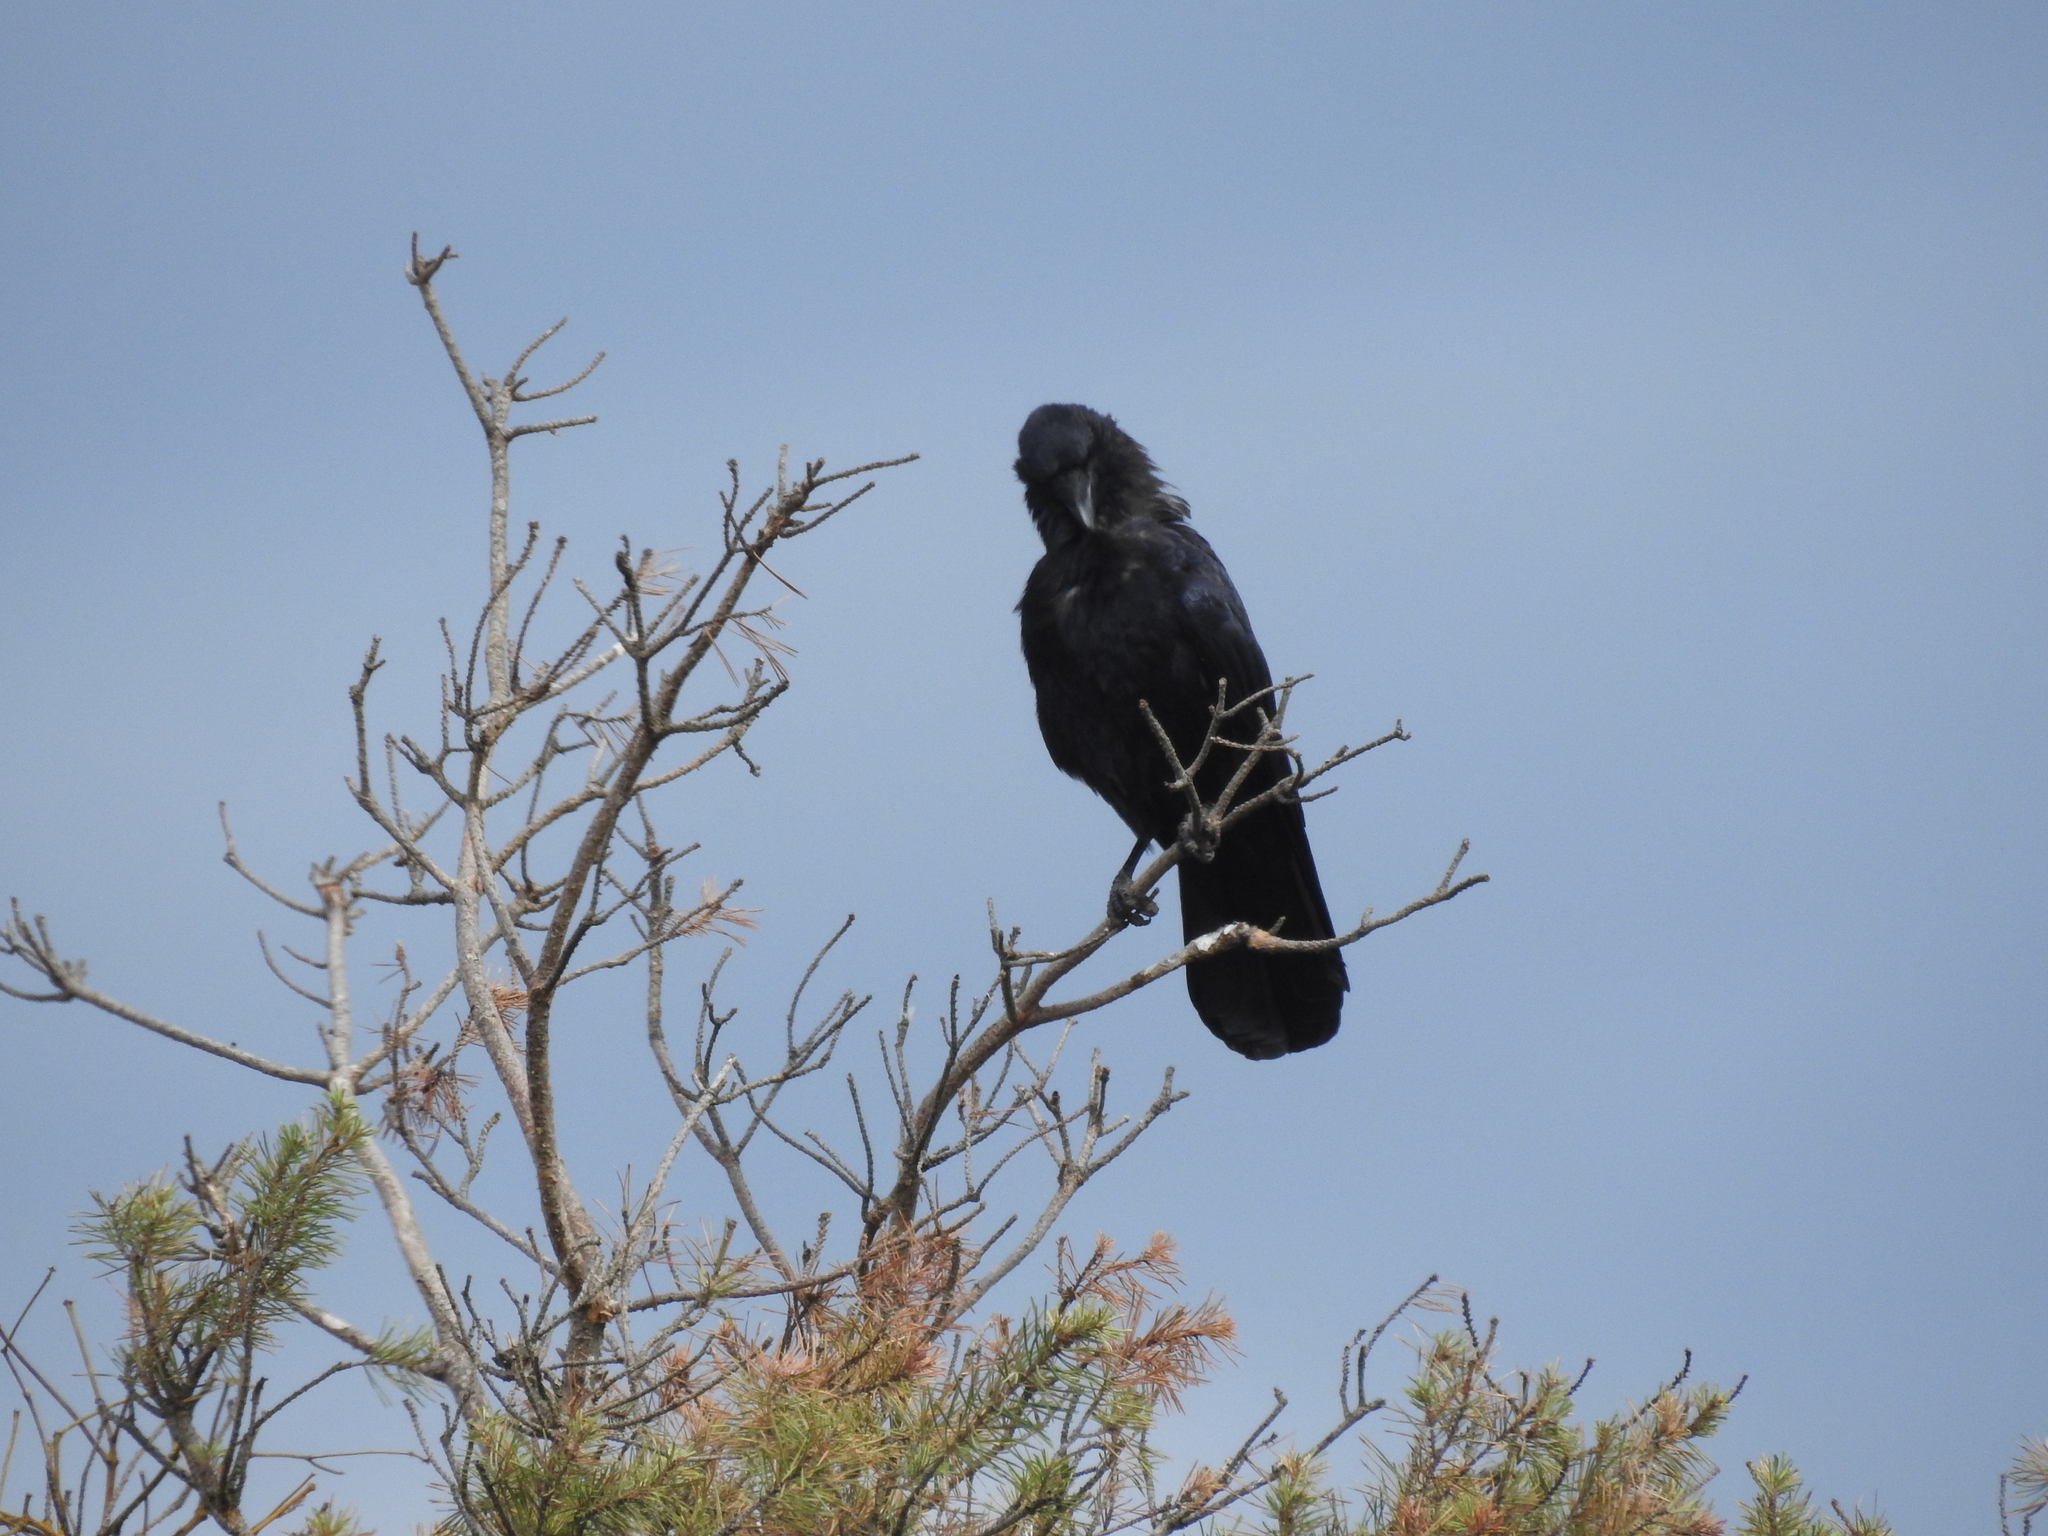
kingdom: Animalia
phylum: Chordata
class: Aves
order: Passeriformes
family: Corvidae
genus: Corvus
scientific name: Corvus corax
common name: Common raven
